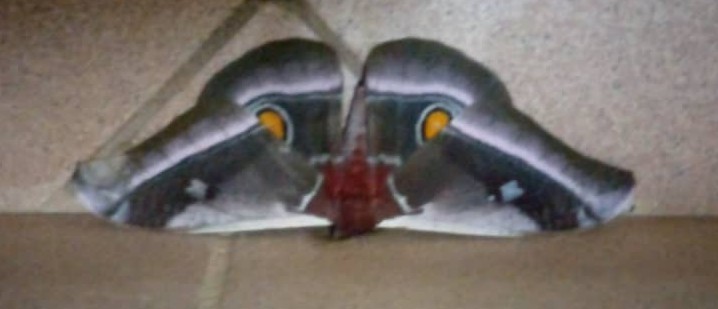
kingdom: Animalia
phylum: Arthropoda
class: Insecta
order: Lepidoptera
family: Saturniidae
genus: Bunaea
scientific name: Bunaea alcinoe
